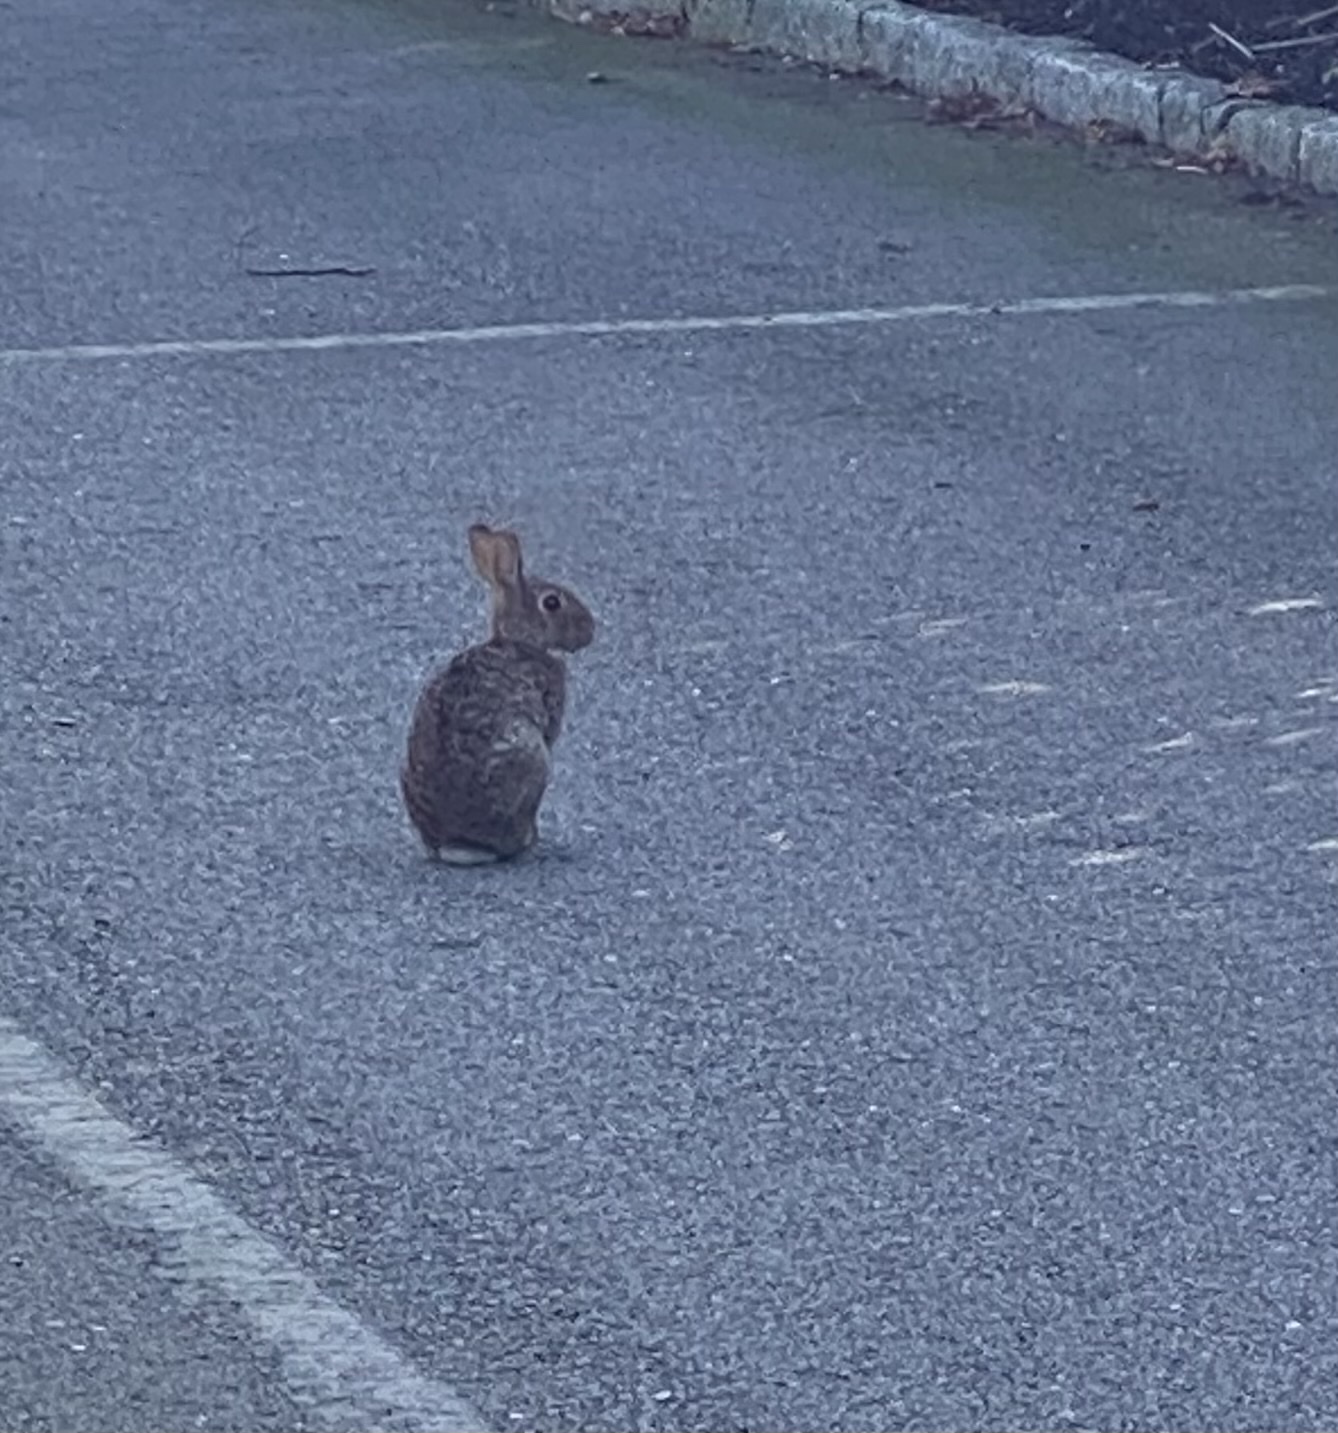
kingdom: Animalia
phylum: Chordata
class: Mammalia
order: Lagomorpha
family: Leporidae
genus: Sylvilagus
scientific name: Sylvilagus floridanus
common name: Eastern cottontail
